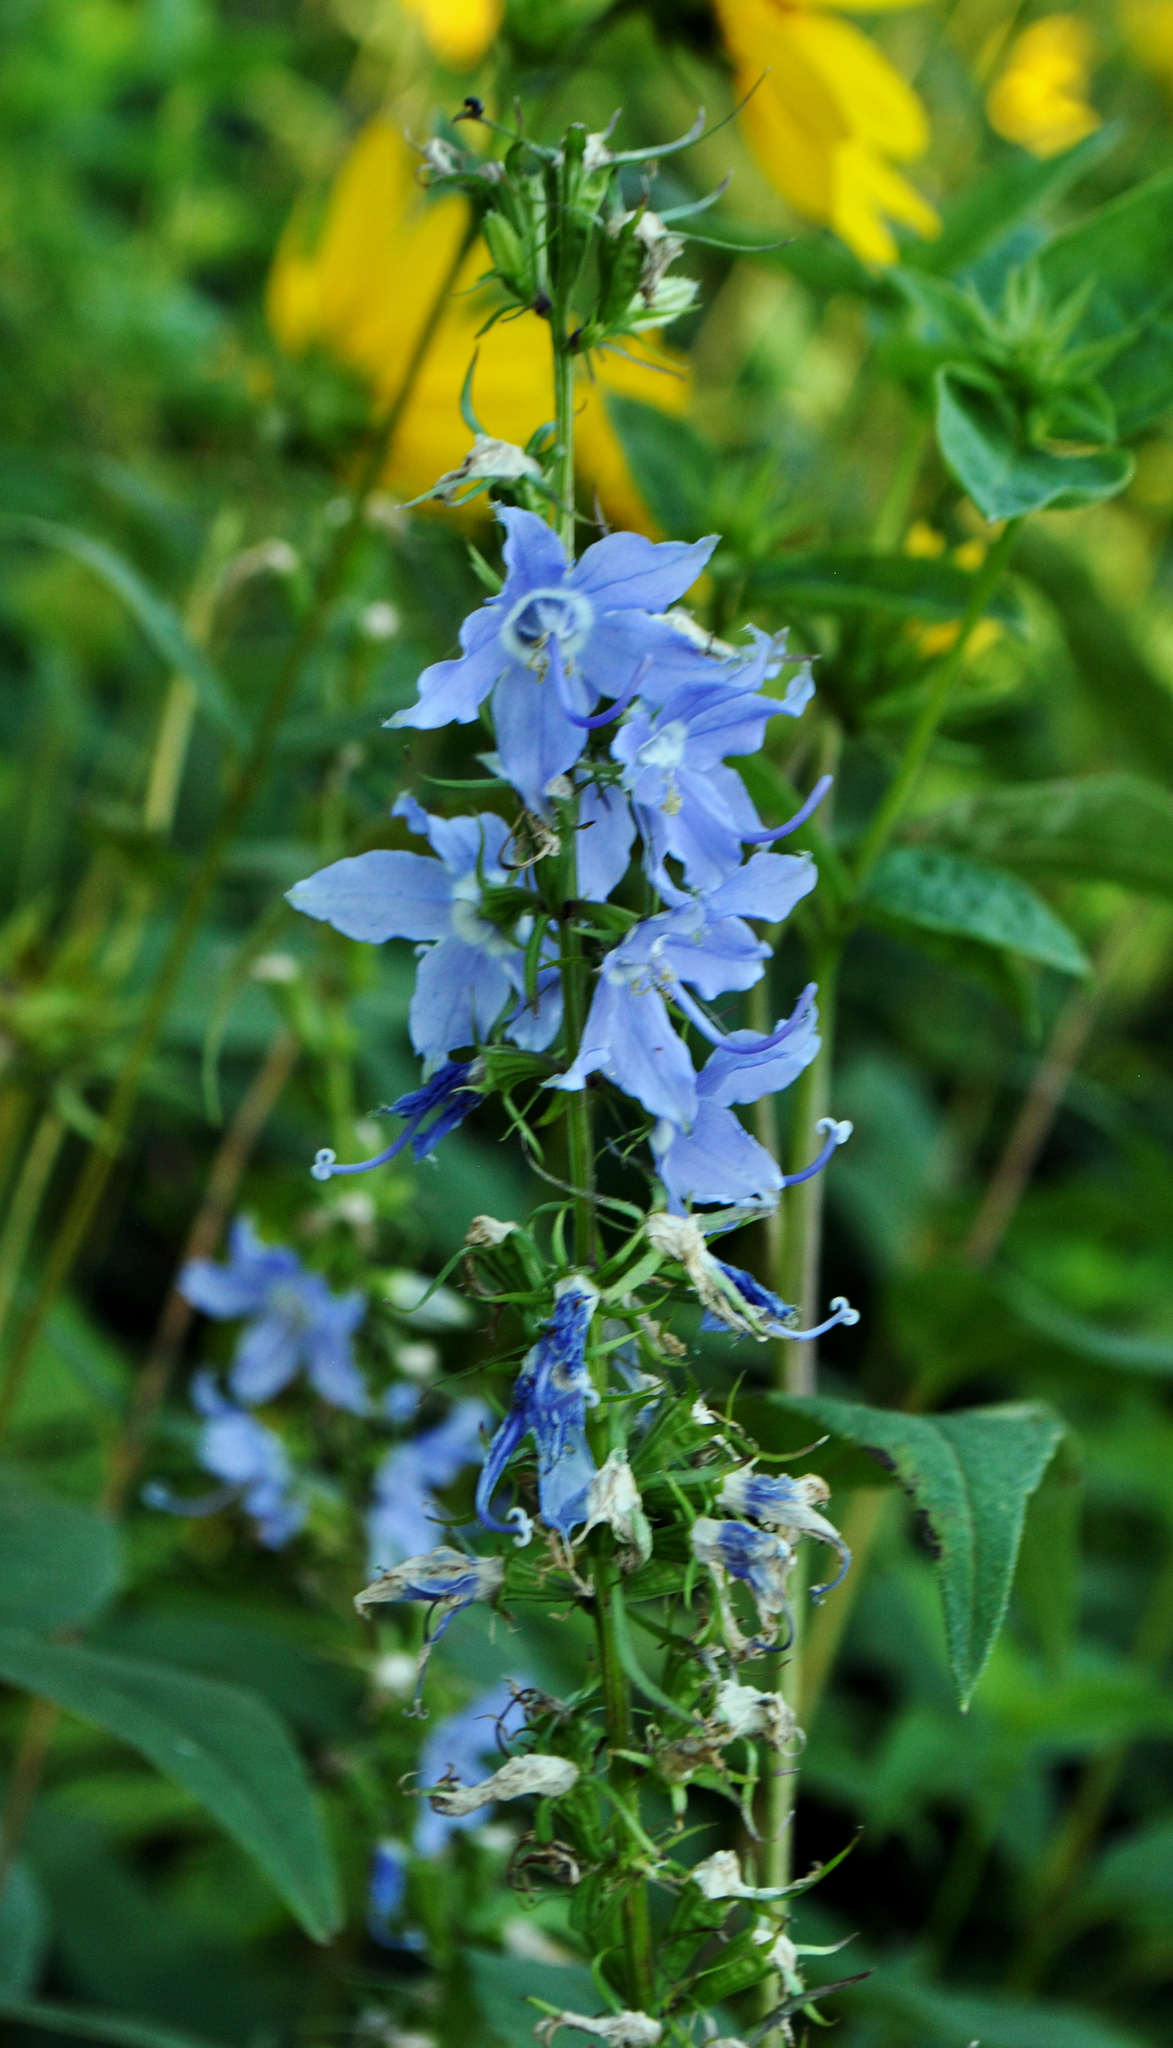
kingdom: Plantae
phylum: Tracheophyta
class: Magnoliopsida
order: Asterales
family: Campanulaceae
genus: Campanulastrum
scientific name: Campanulastrum americanum
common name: American bellflower
